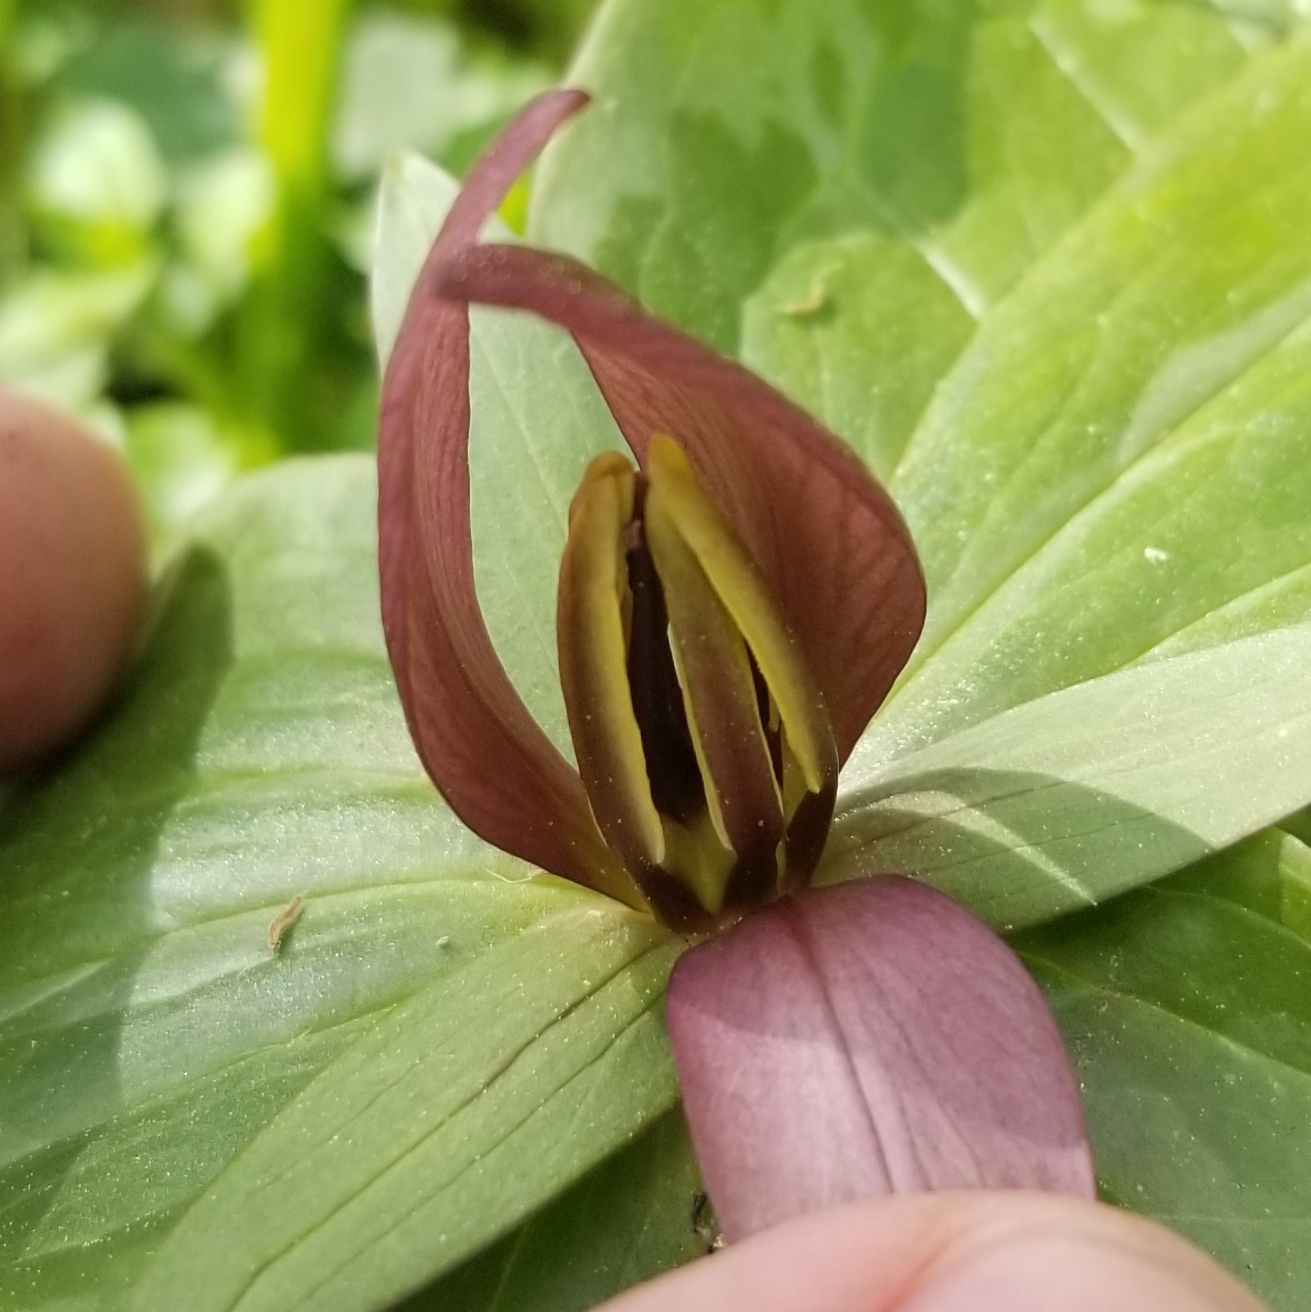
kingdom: Plantae
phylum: Tracheophyta
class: Liliopsida
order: Liliales
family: Melanthiaceae
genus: Trillium
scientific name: Trillium sessile
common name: Sessile trillium
